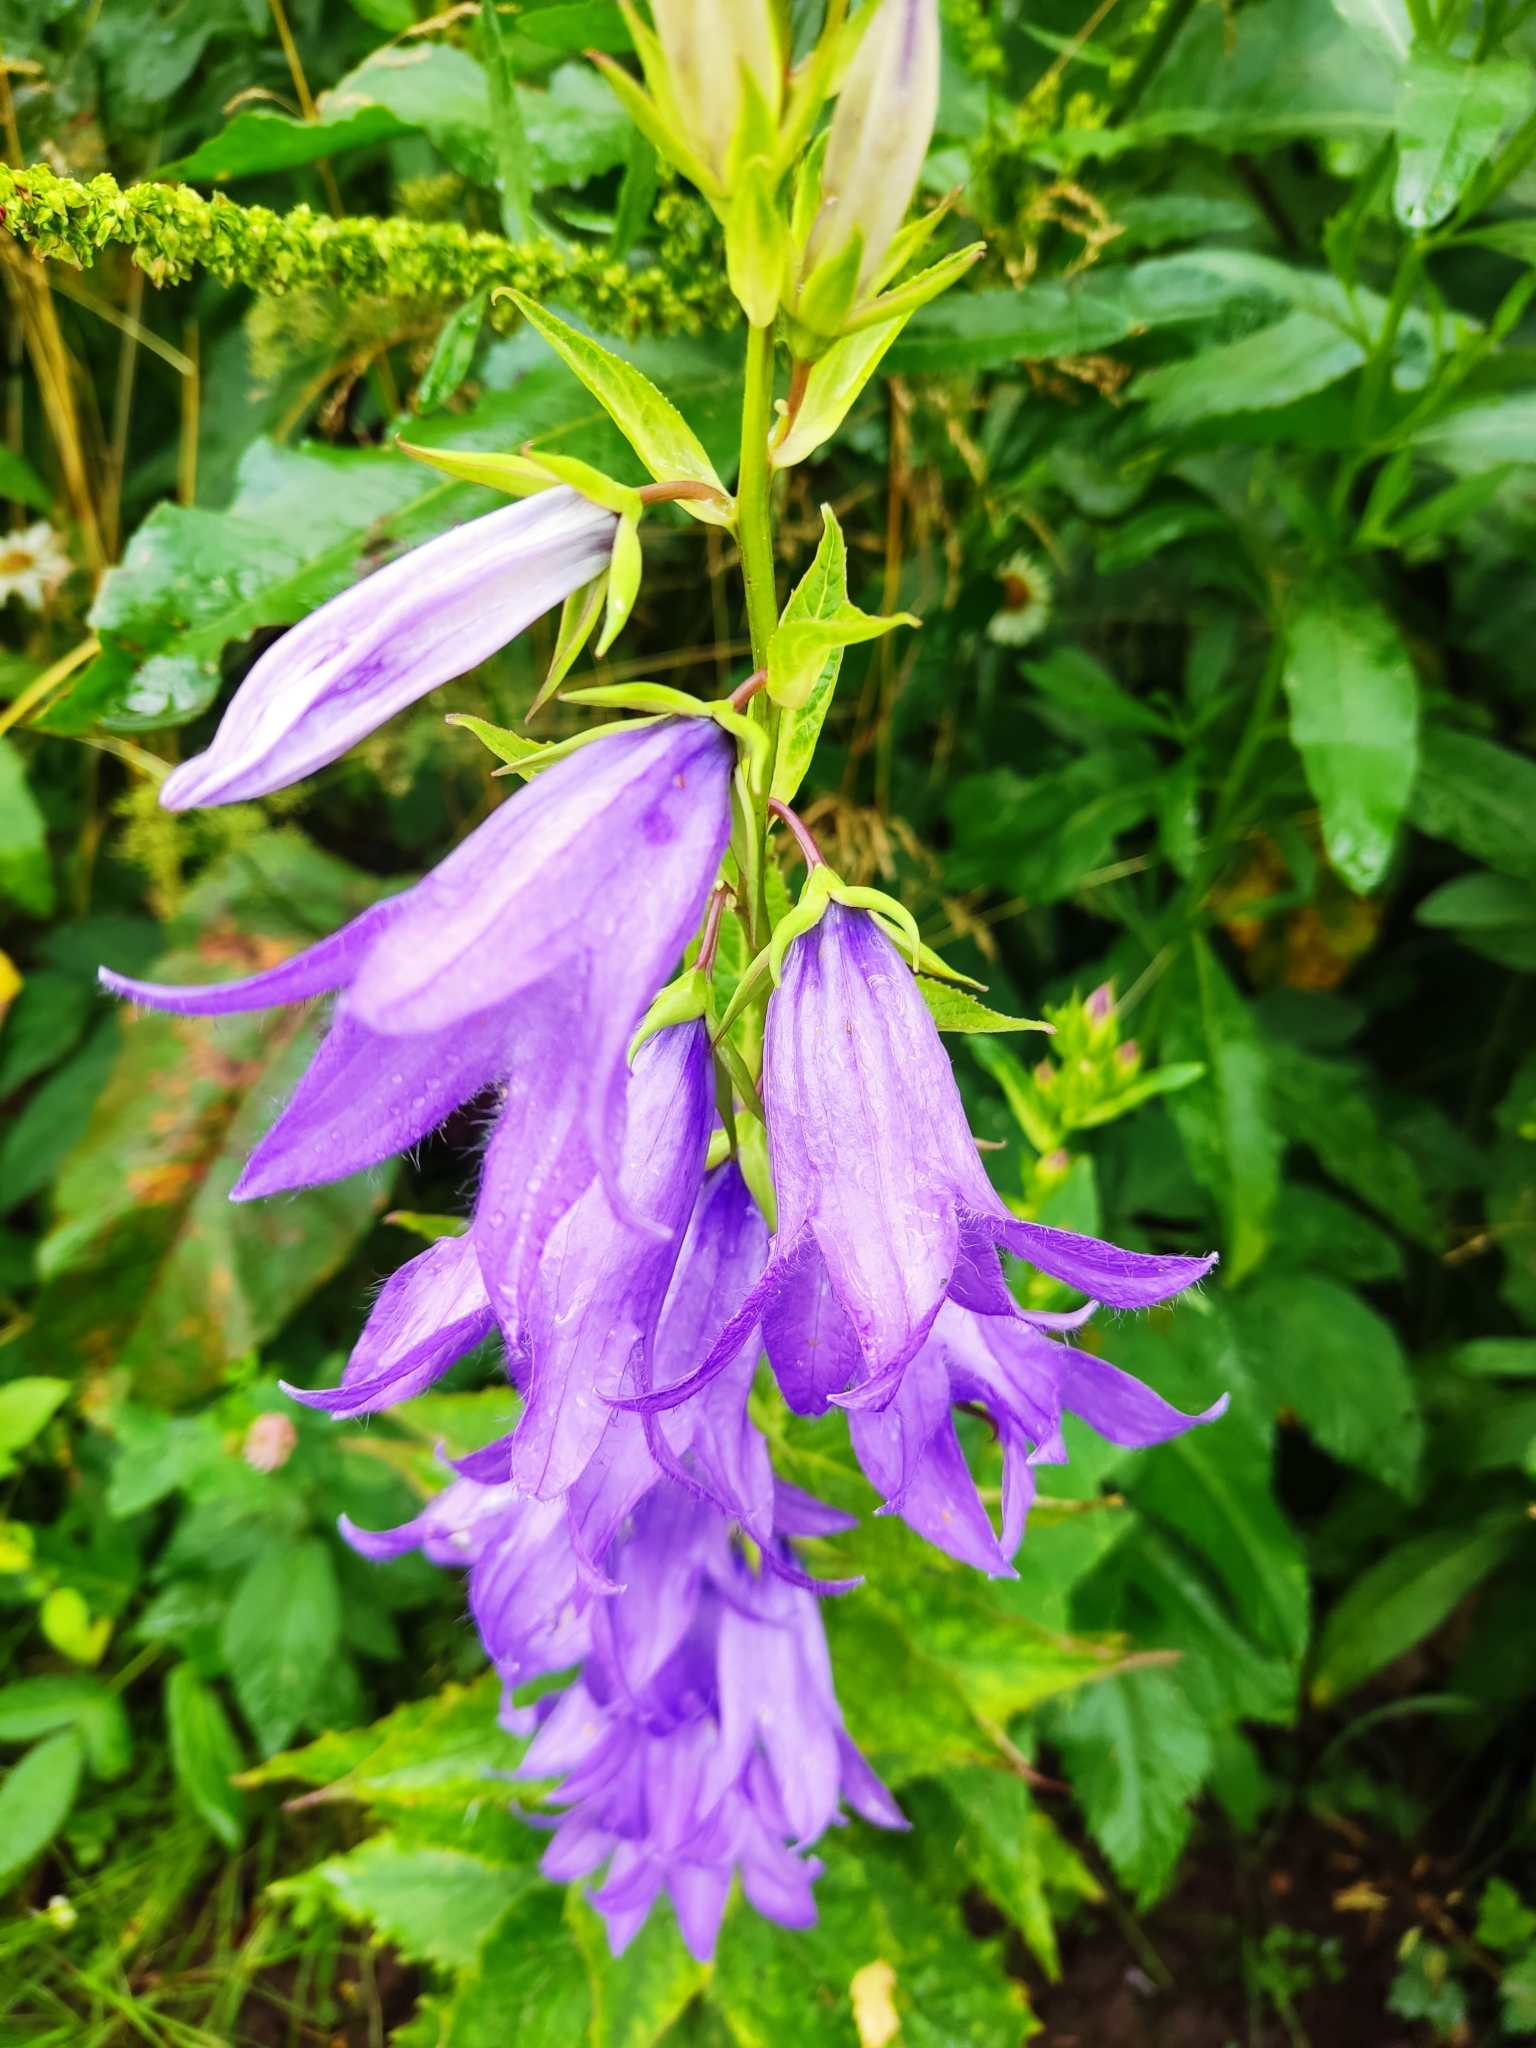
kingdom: Plantae
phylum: Tracheophyta
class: Magnoliopsida
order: Asterales
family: Campanulaceae
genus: Campanula
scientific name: Campanula latifolia
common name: Giant bellflower
